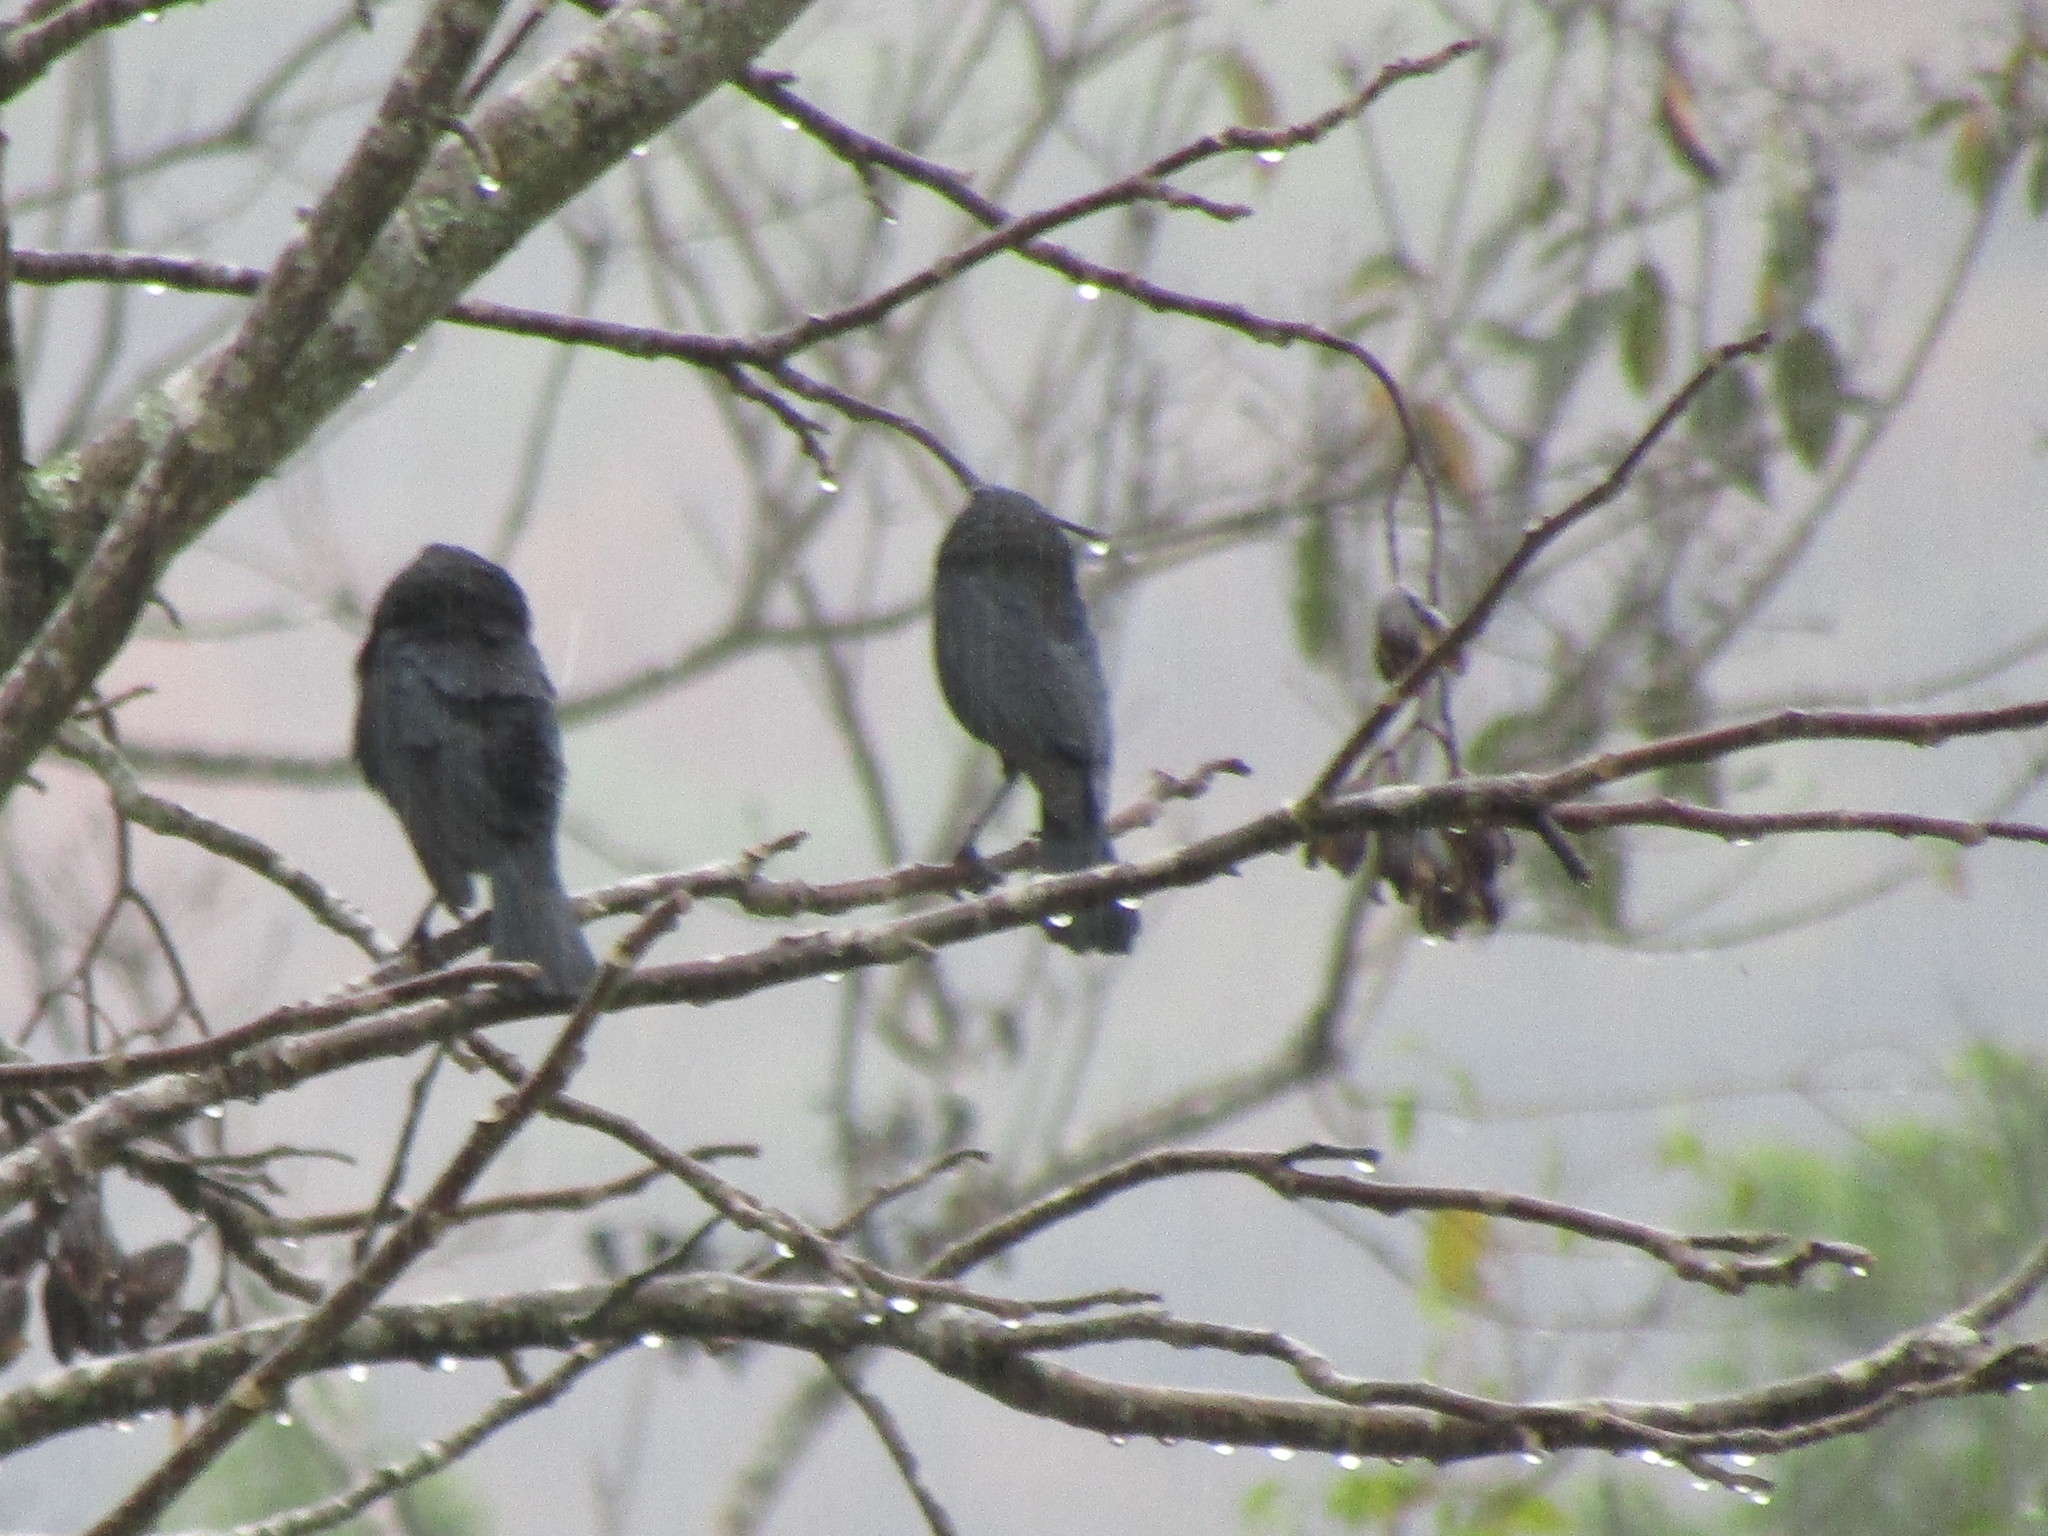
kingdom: Animalia
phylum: Chordata
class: Aves
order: Passeriformes
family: Icteridae
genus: Molothrus
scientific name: Molothrus aeneus
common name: Bronzed cowbird
